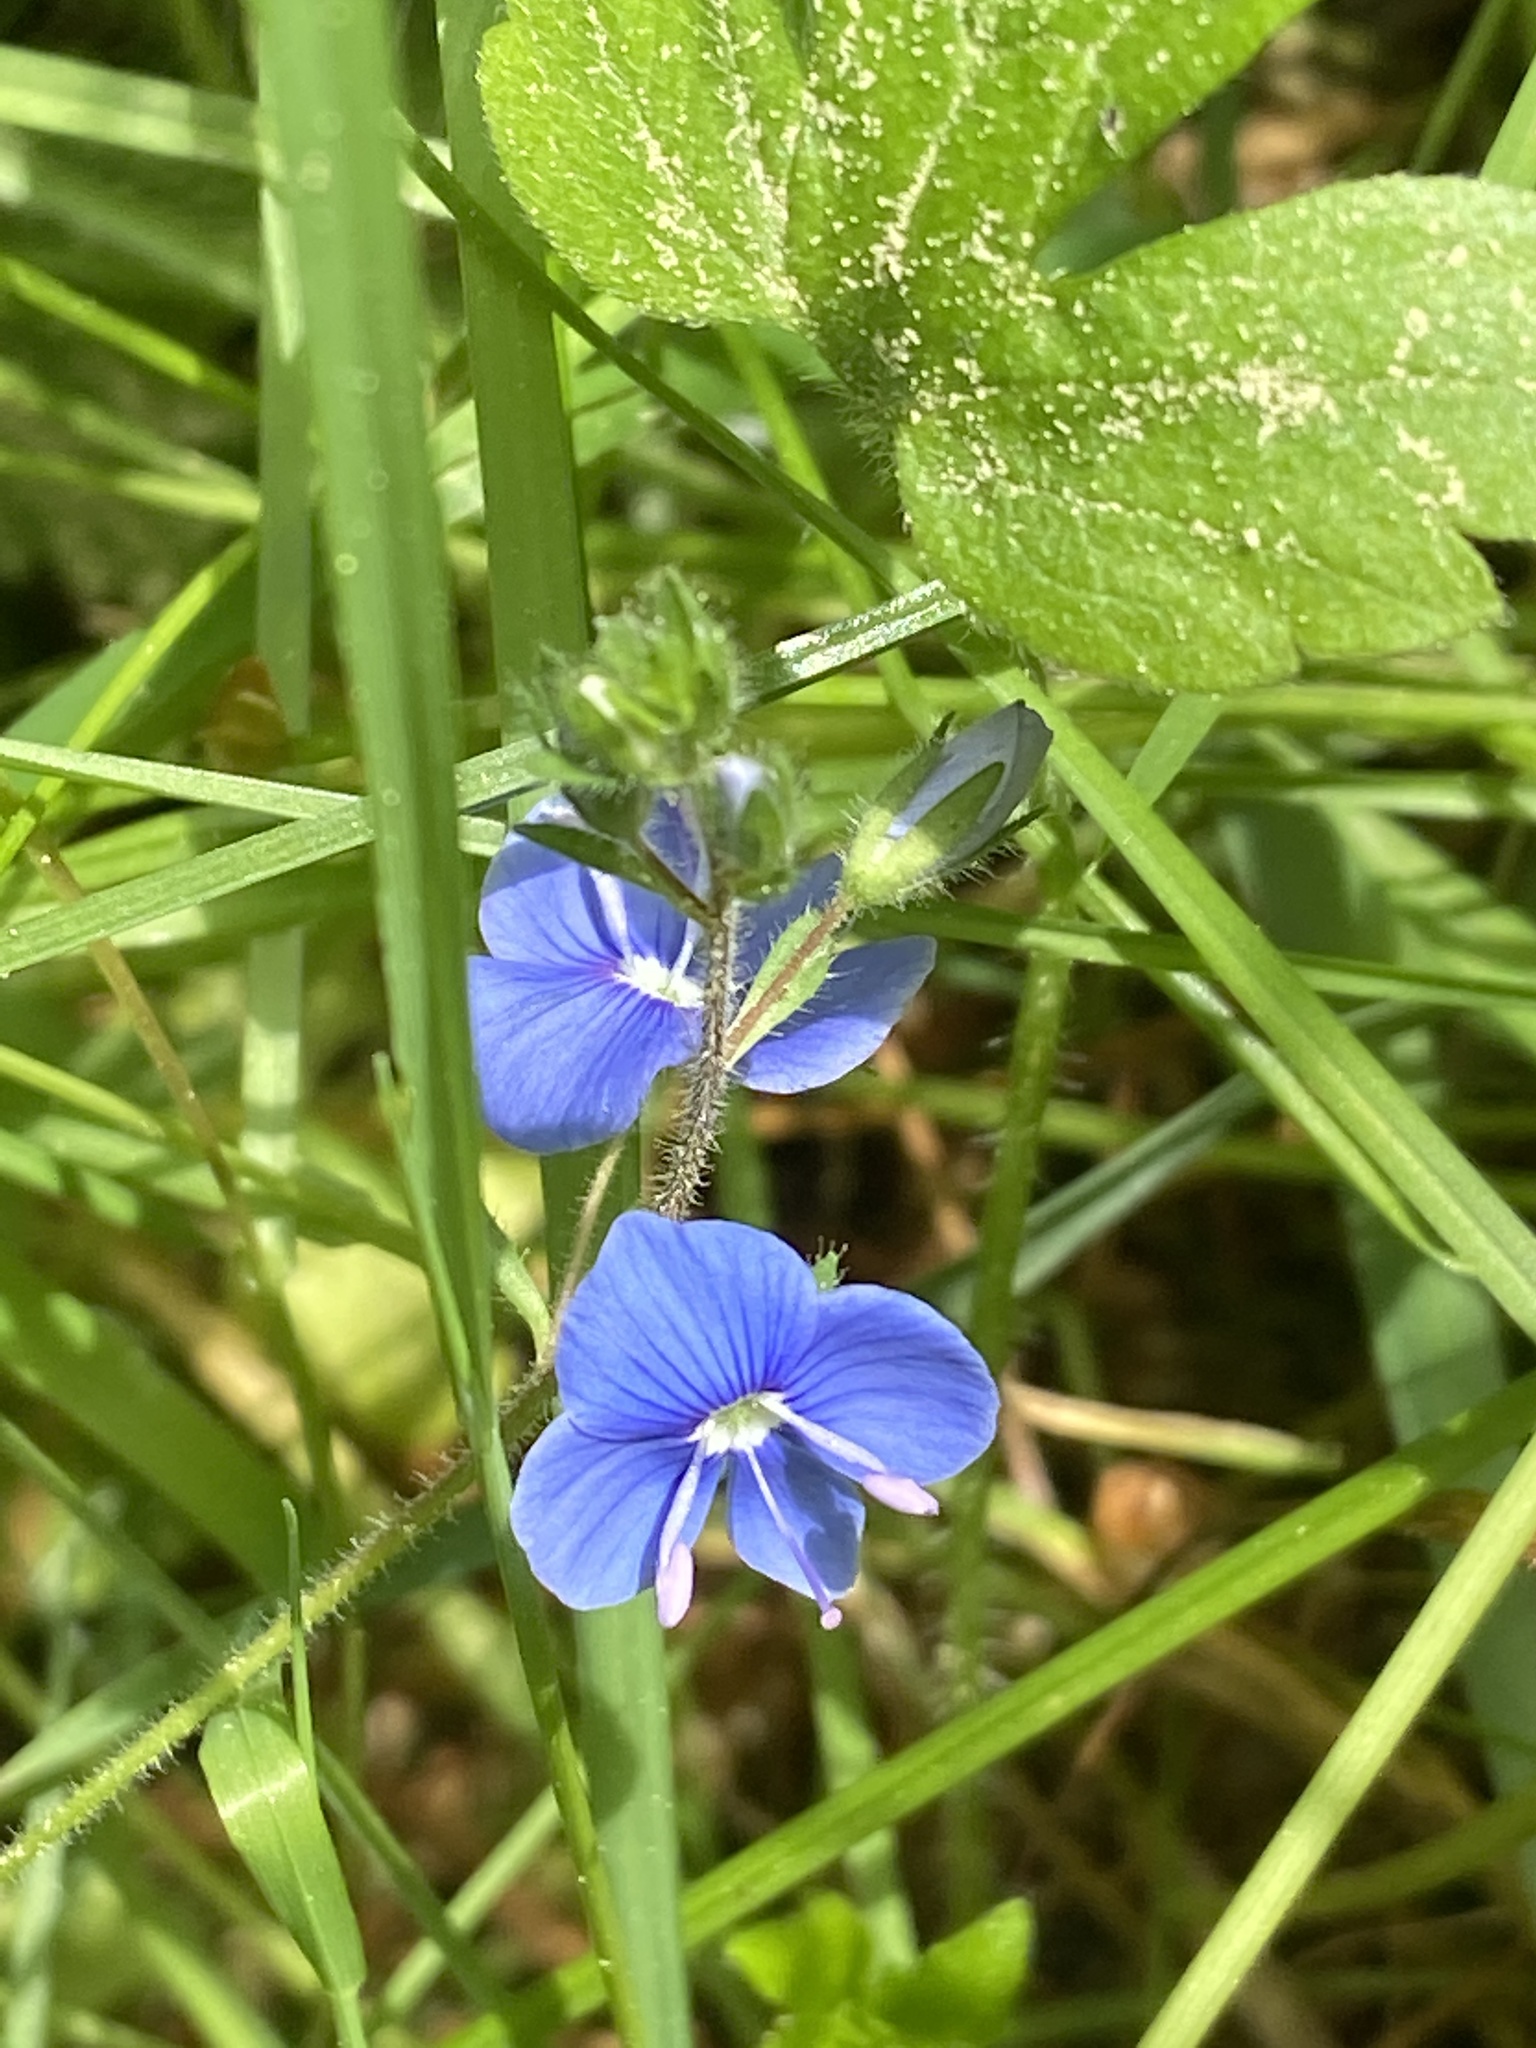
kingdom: Plantae
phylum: Tracheophyta
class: Magnoliopsida
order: Lamiales
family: Plantaginaceae
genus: Veronica
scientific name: Veronica chamaedrys
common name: Germander speedwell
